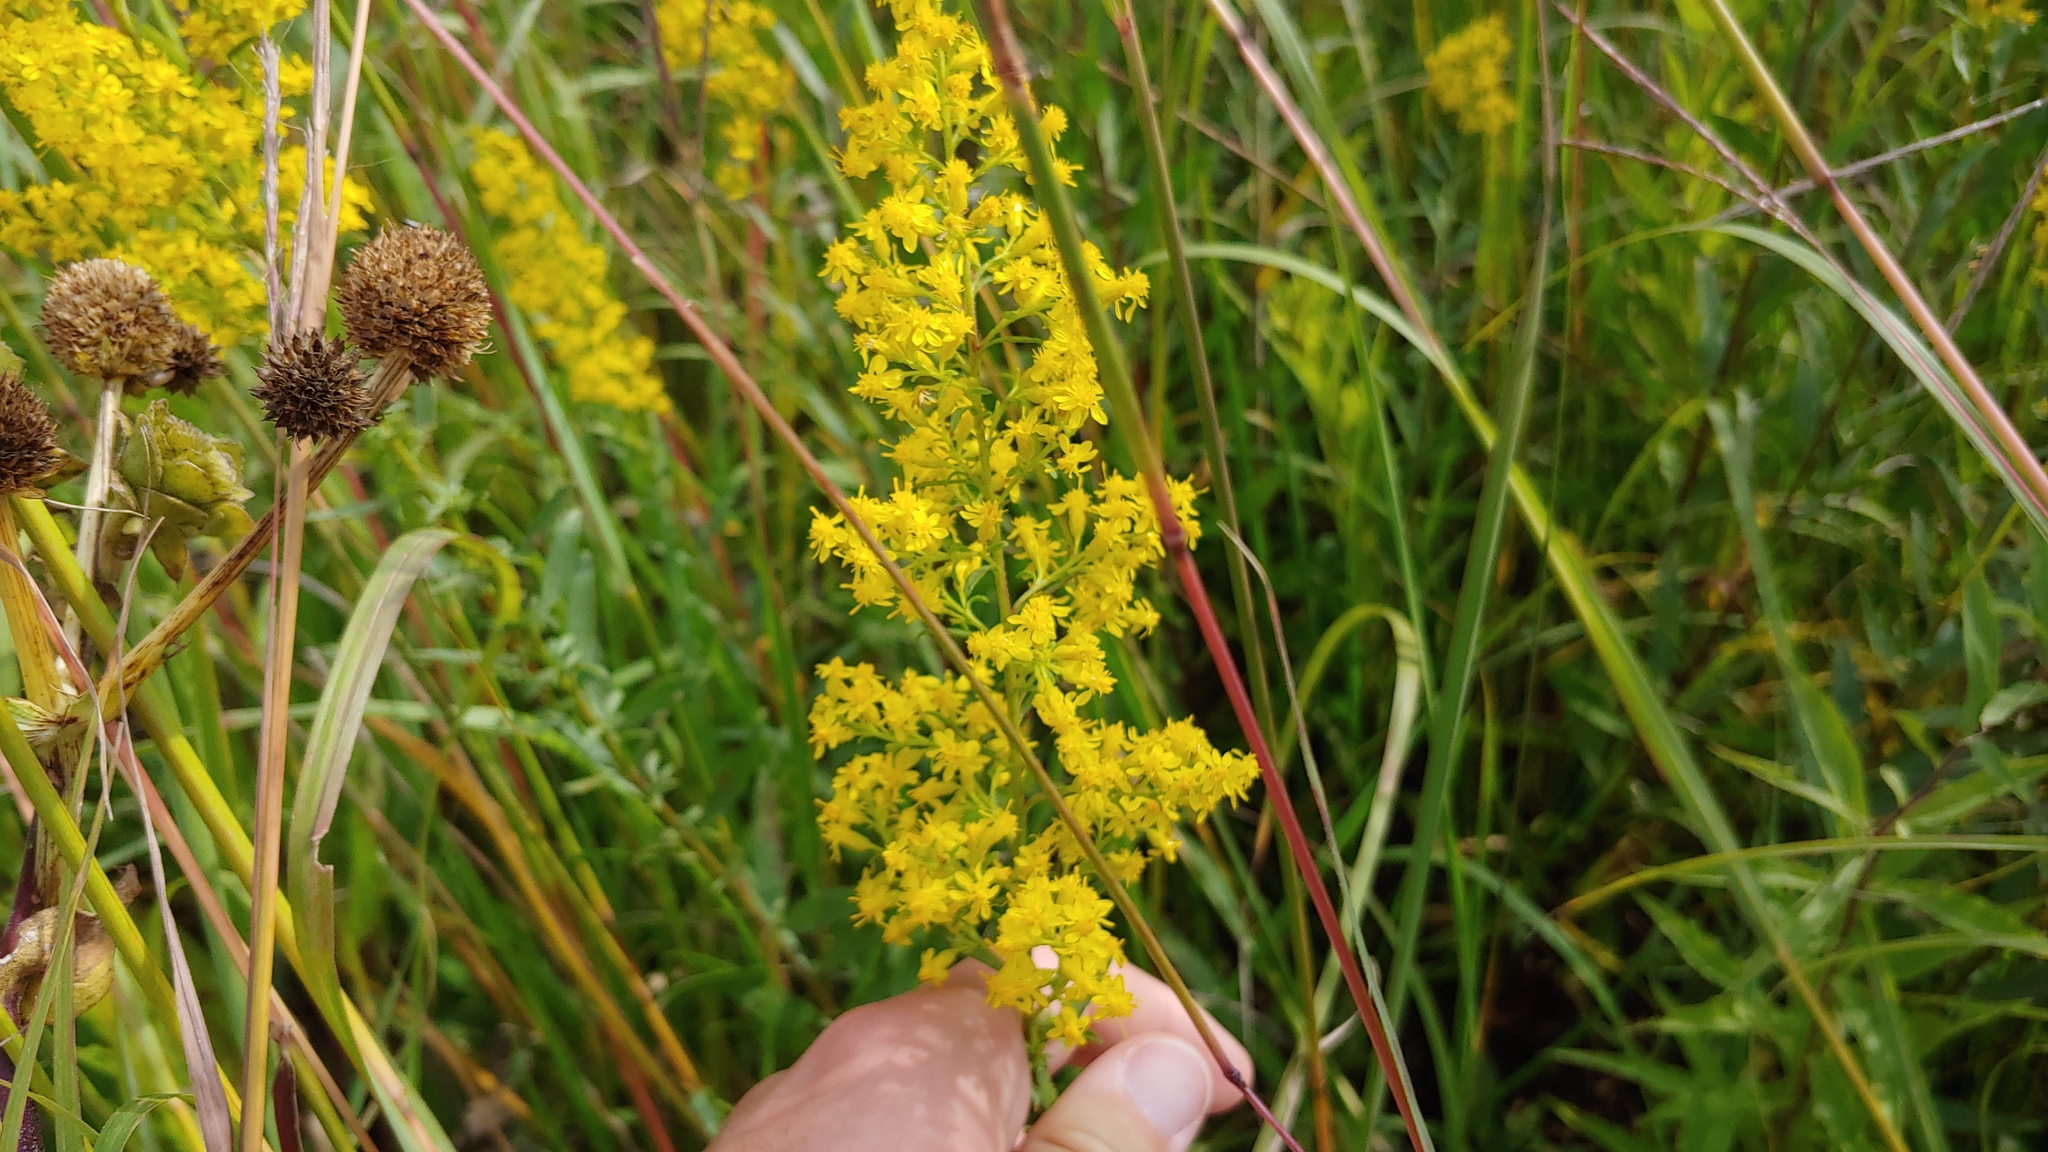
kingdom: Plantae
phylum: Tracheophyta
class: Magnoliopsida
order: Asterales
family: Asteraceae
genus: Solidago
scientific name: Solidago rigidiuscula
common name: Stiff-leaved showy goldenrod
